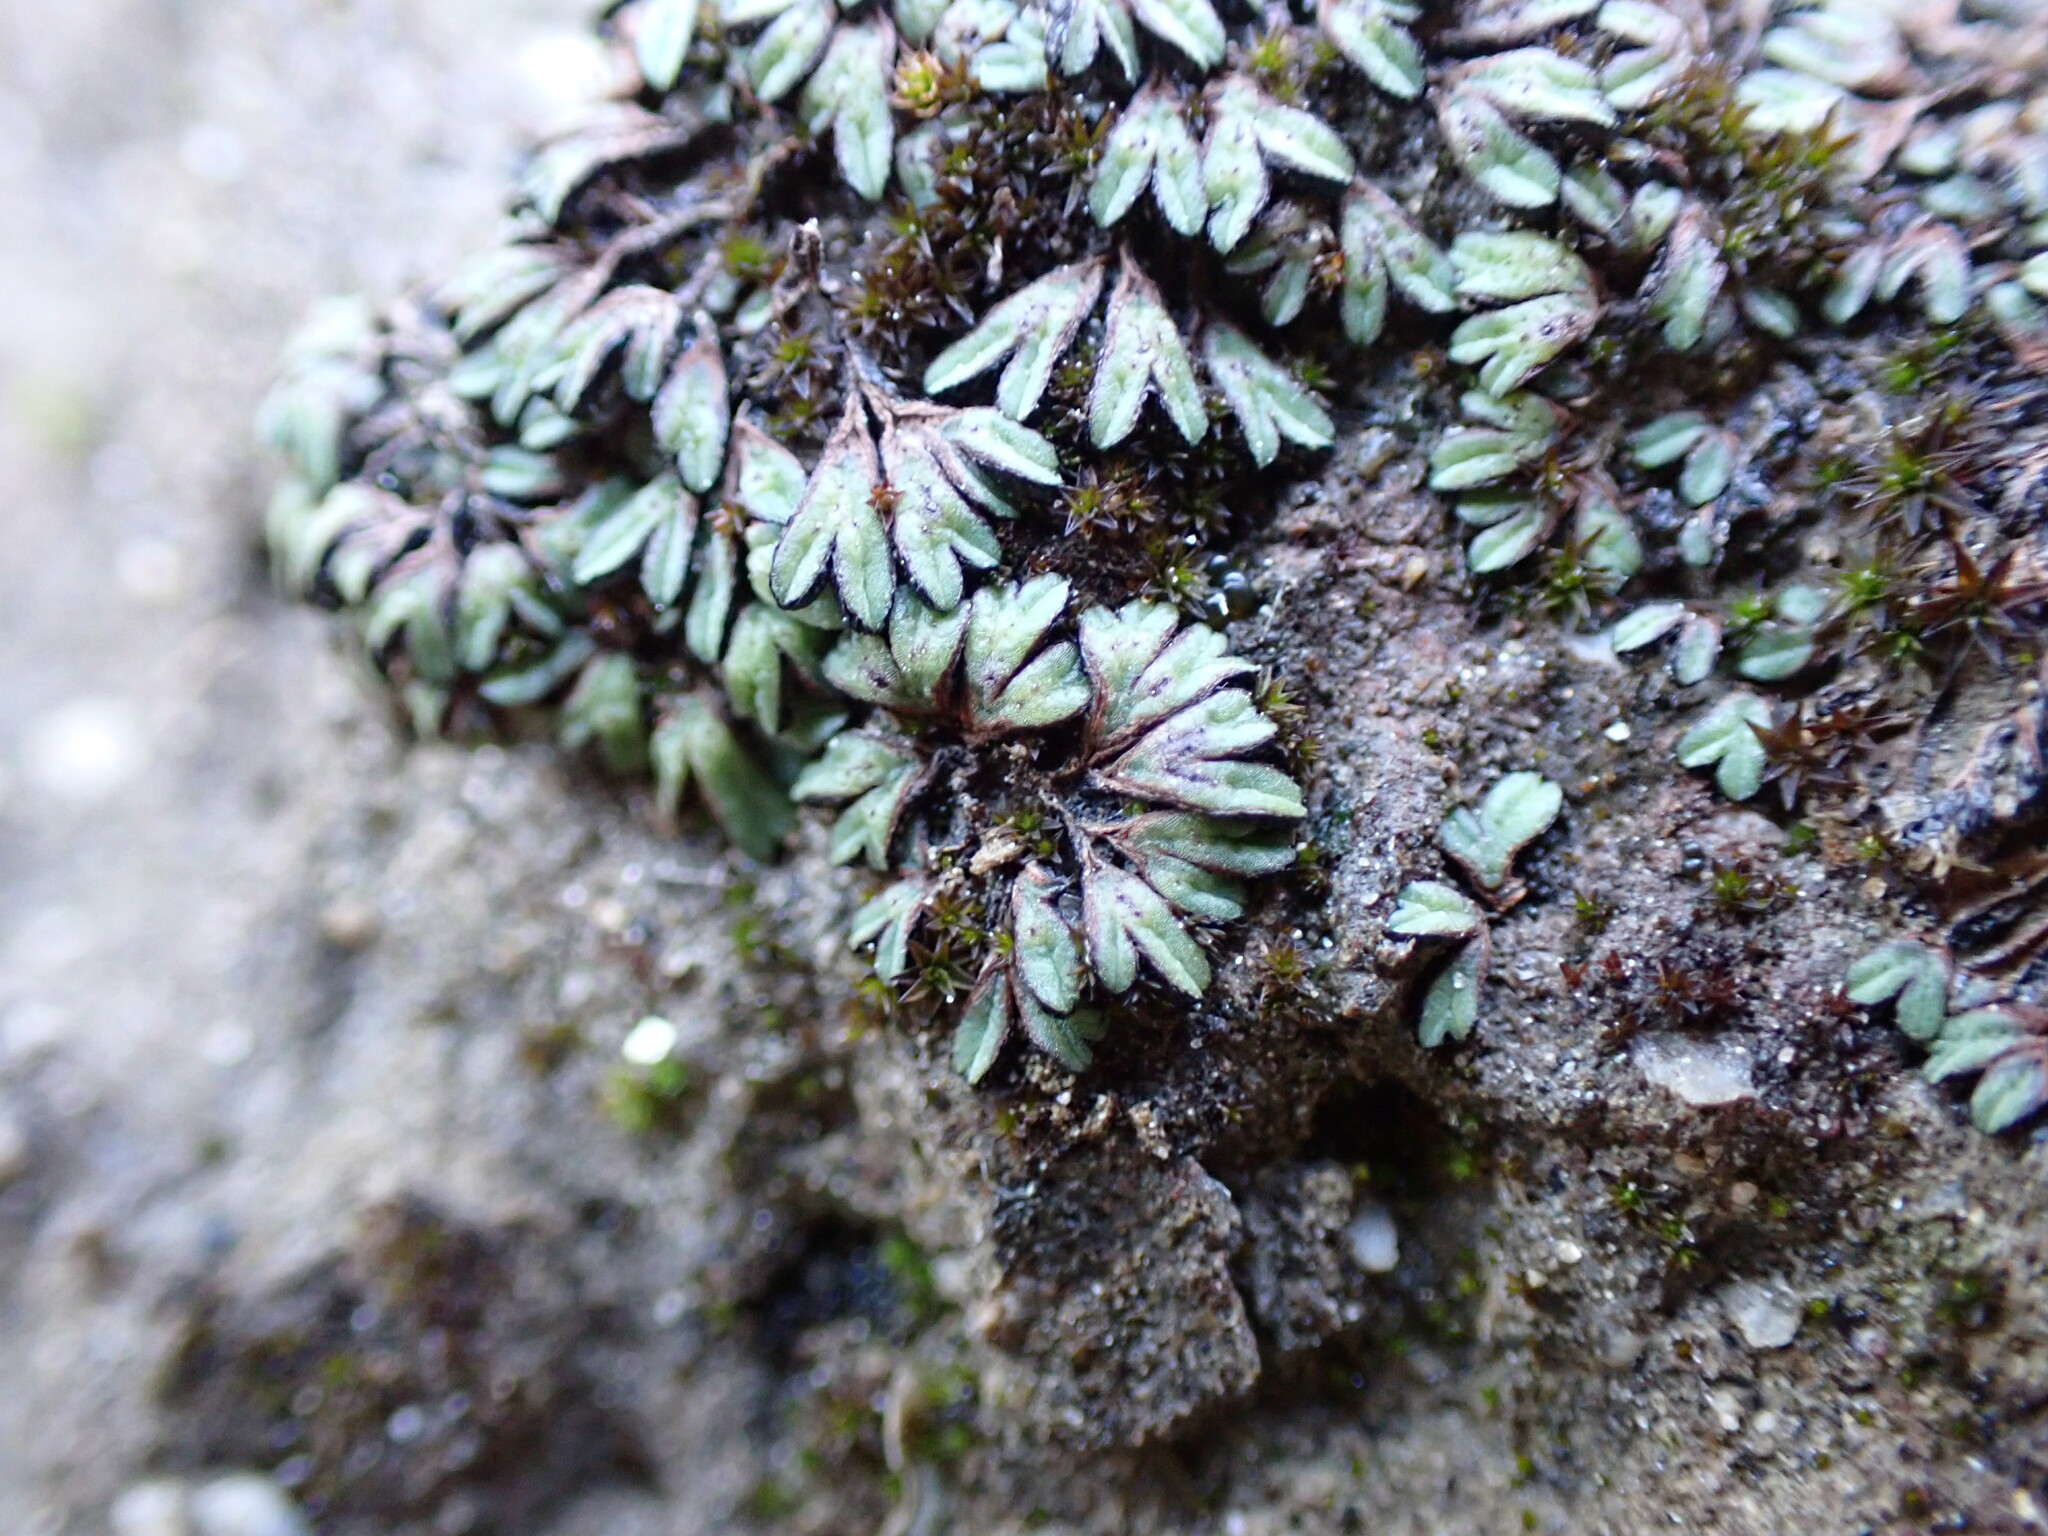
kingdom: Plantae
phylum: Marchantiophyta
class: Marchantiopsida
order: Marchantiales
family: Ricciaceae
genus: Riccia
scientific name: Riccia nigrella
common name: Black crystalwort
